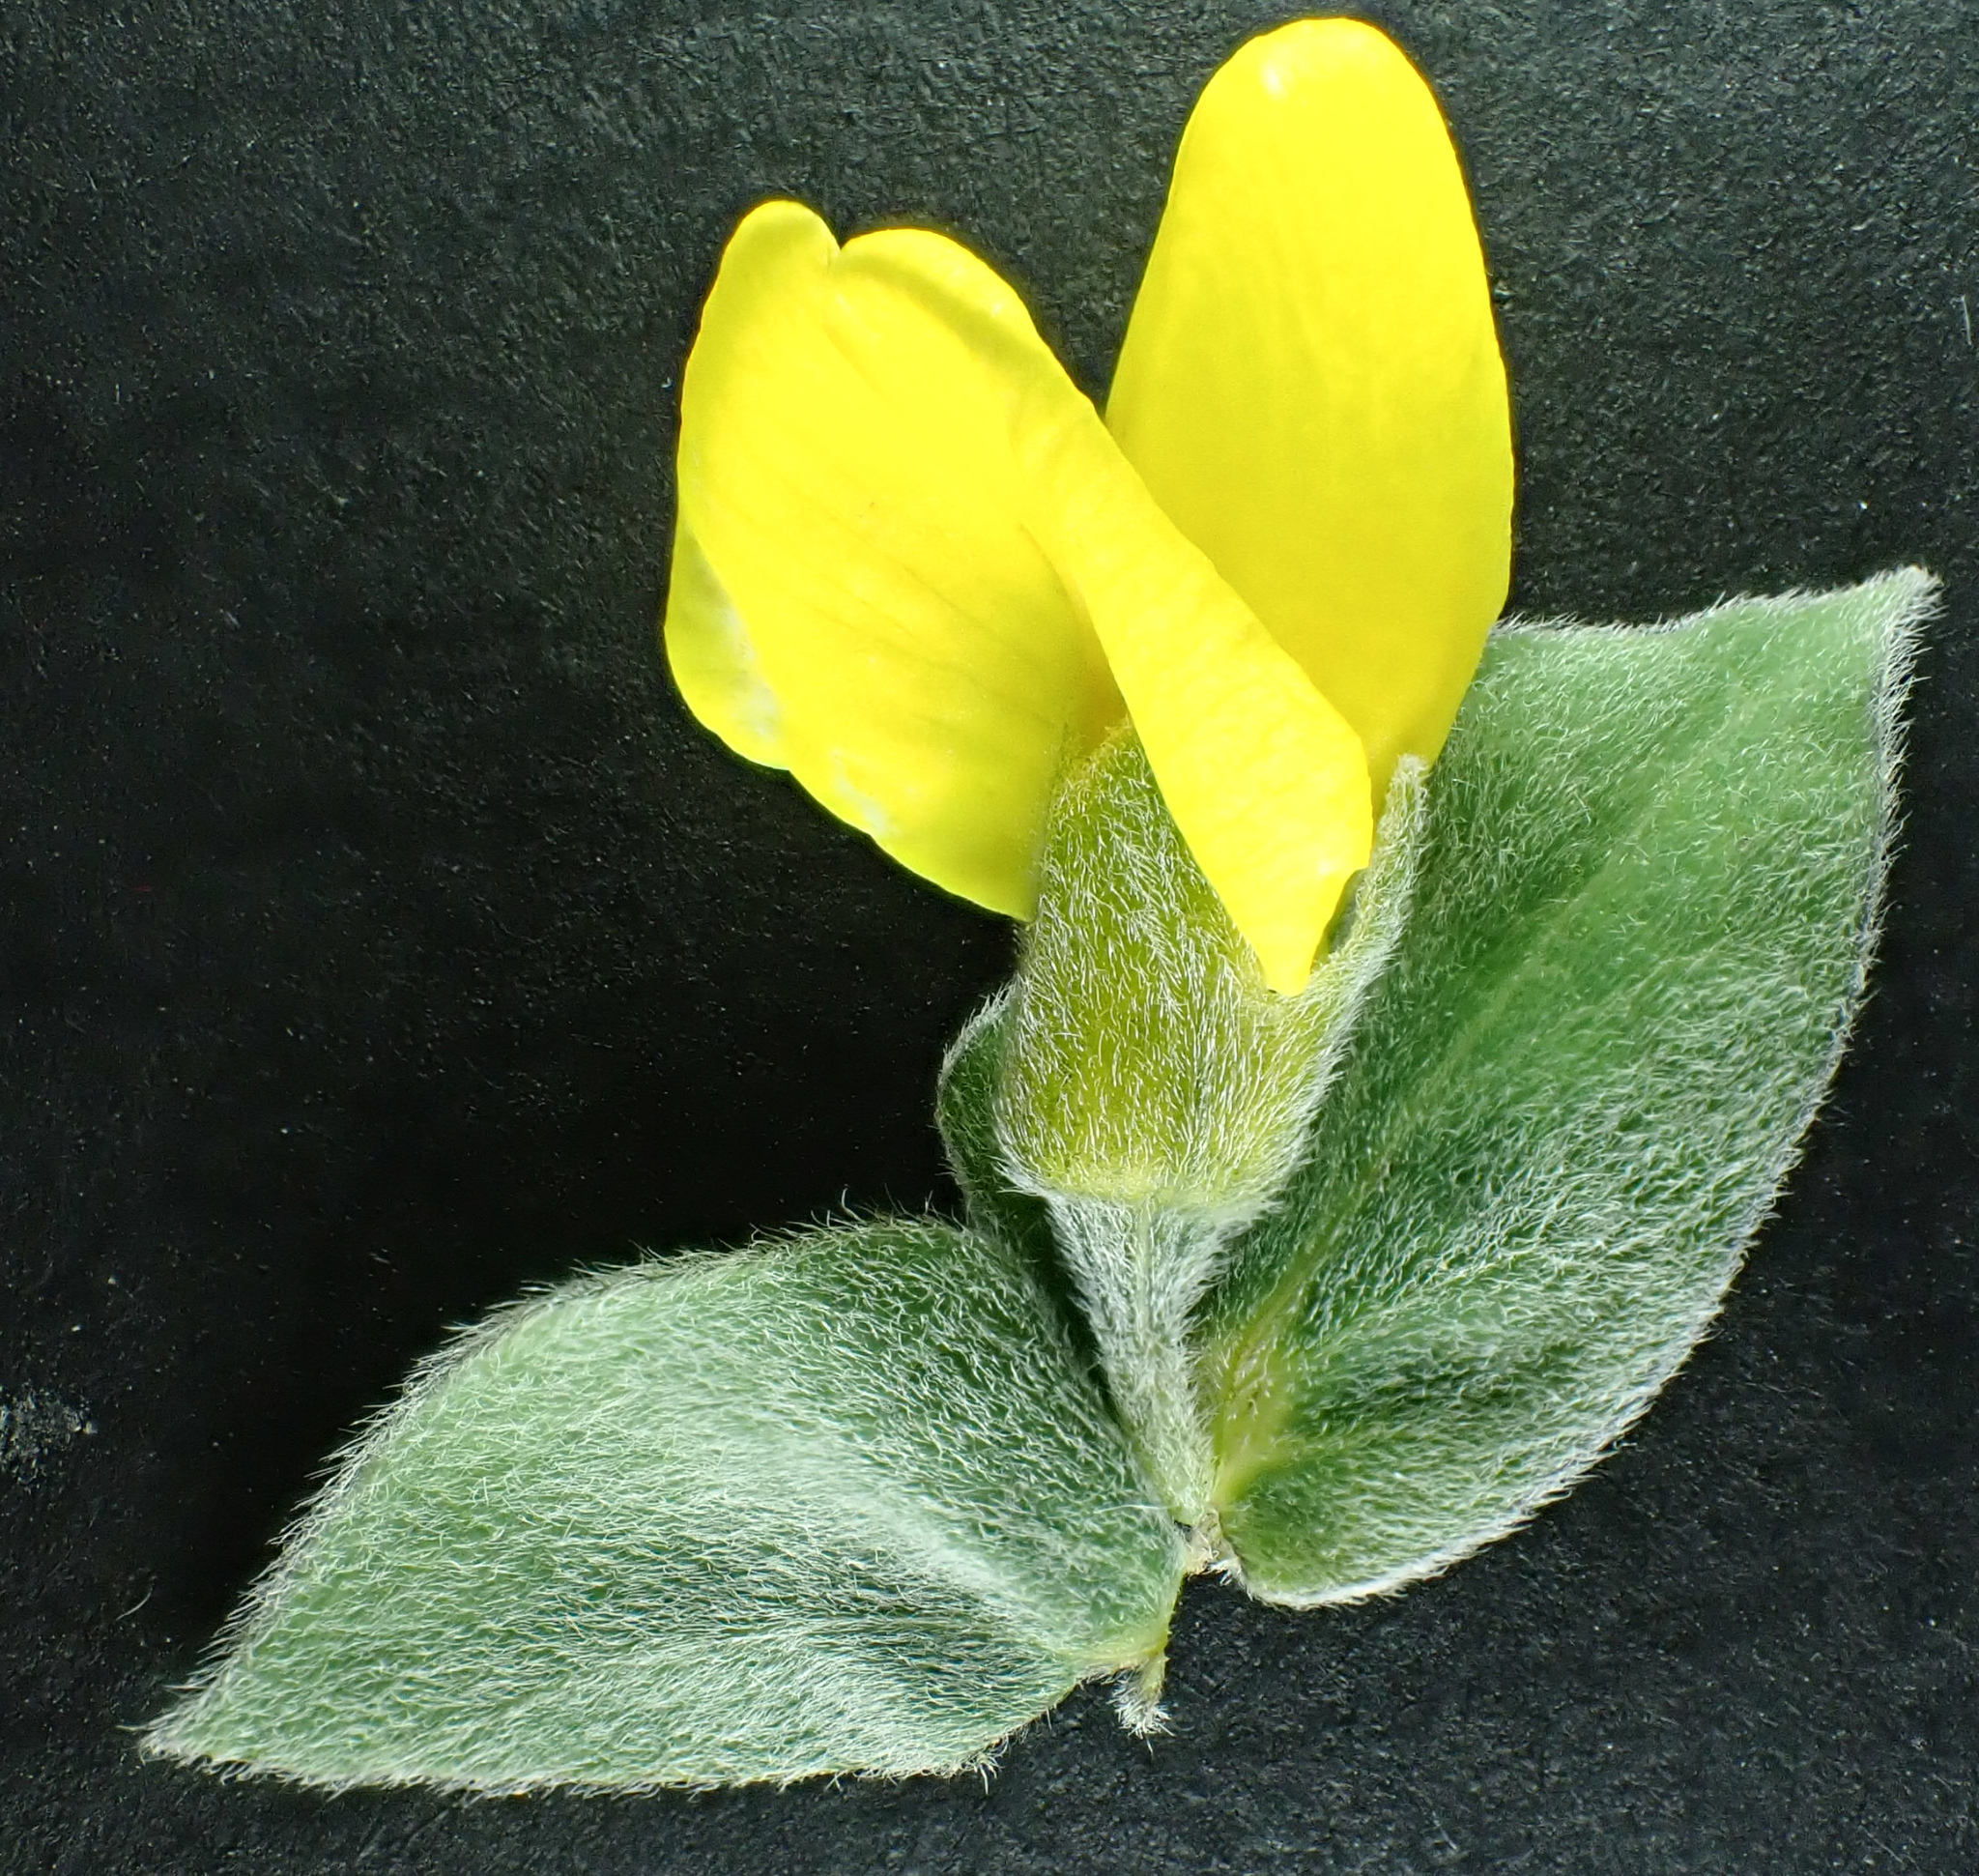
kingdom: Plantae
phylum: Tracheophyta
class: Magnoliopsida
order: Fabales
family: Fabaceae
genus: Thermopsis
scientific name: Thermopsis californica
